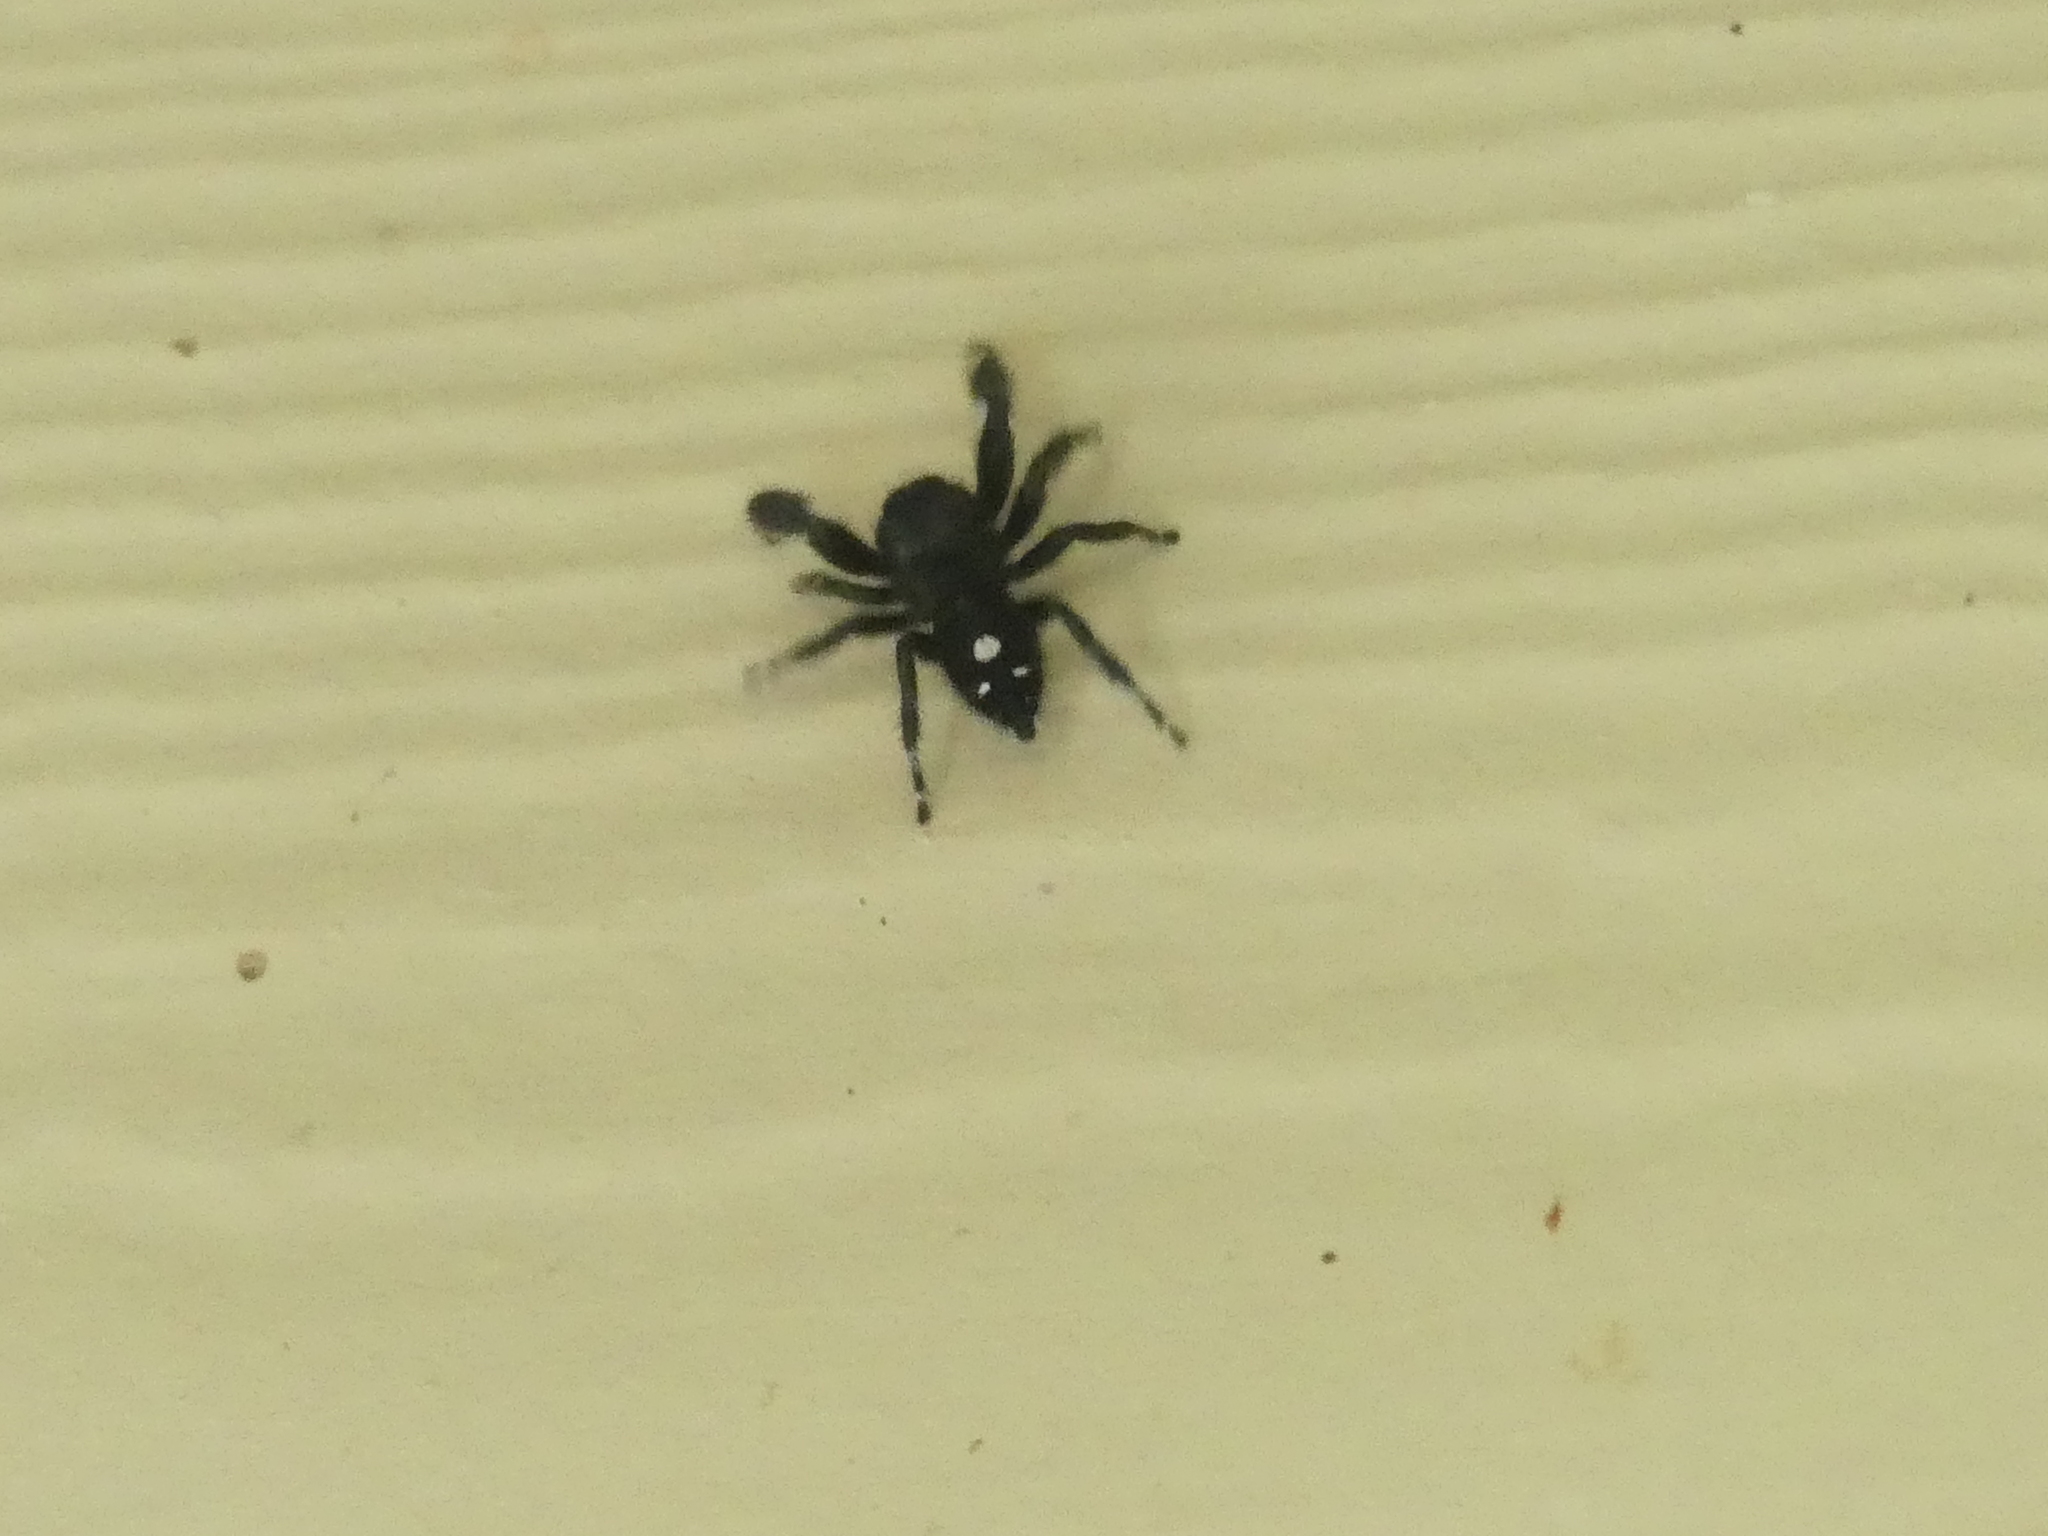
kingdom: Animalia
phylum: Arthropoda
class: Arachnida
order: Araneae
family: Salticidae
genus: Phidippus
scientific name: Phidippus audax
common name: Bold jumper
